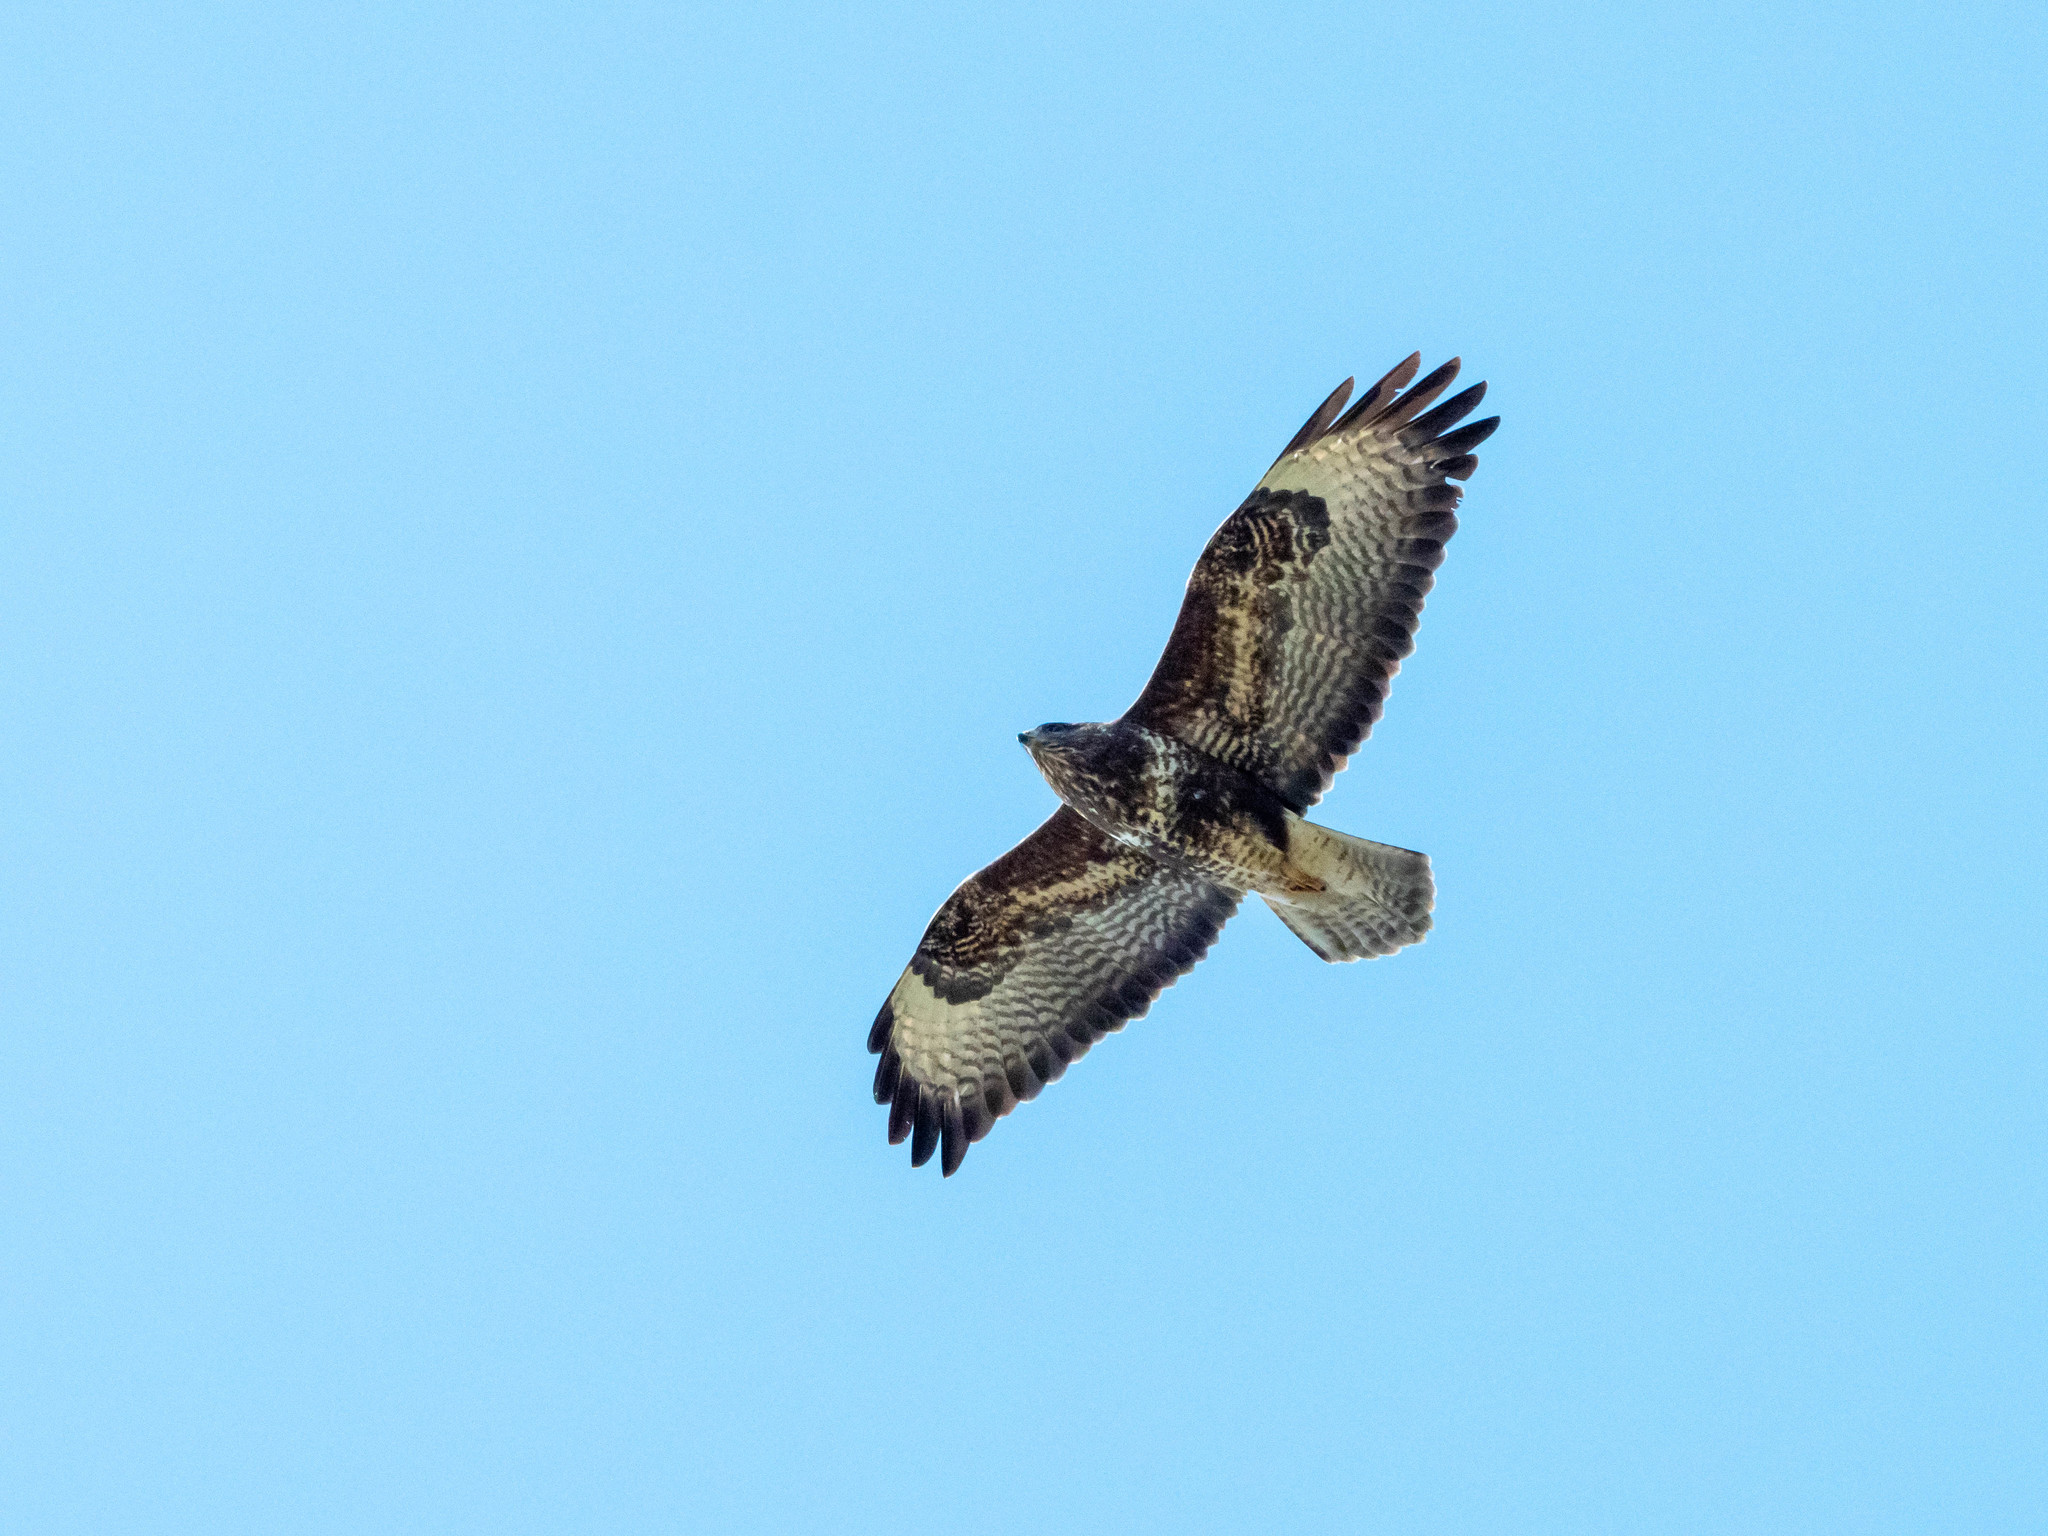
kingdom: Animalia
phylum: Chordata
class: Aves
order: Accipitriformes
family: Accipitridae
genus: Buteo
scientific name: Buteo buteo
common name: Common buzzard
